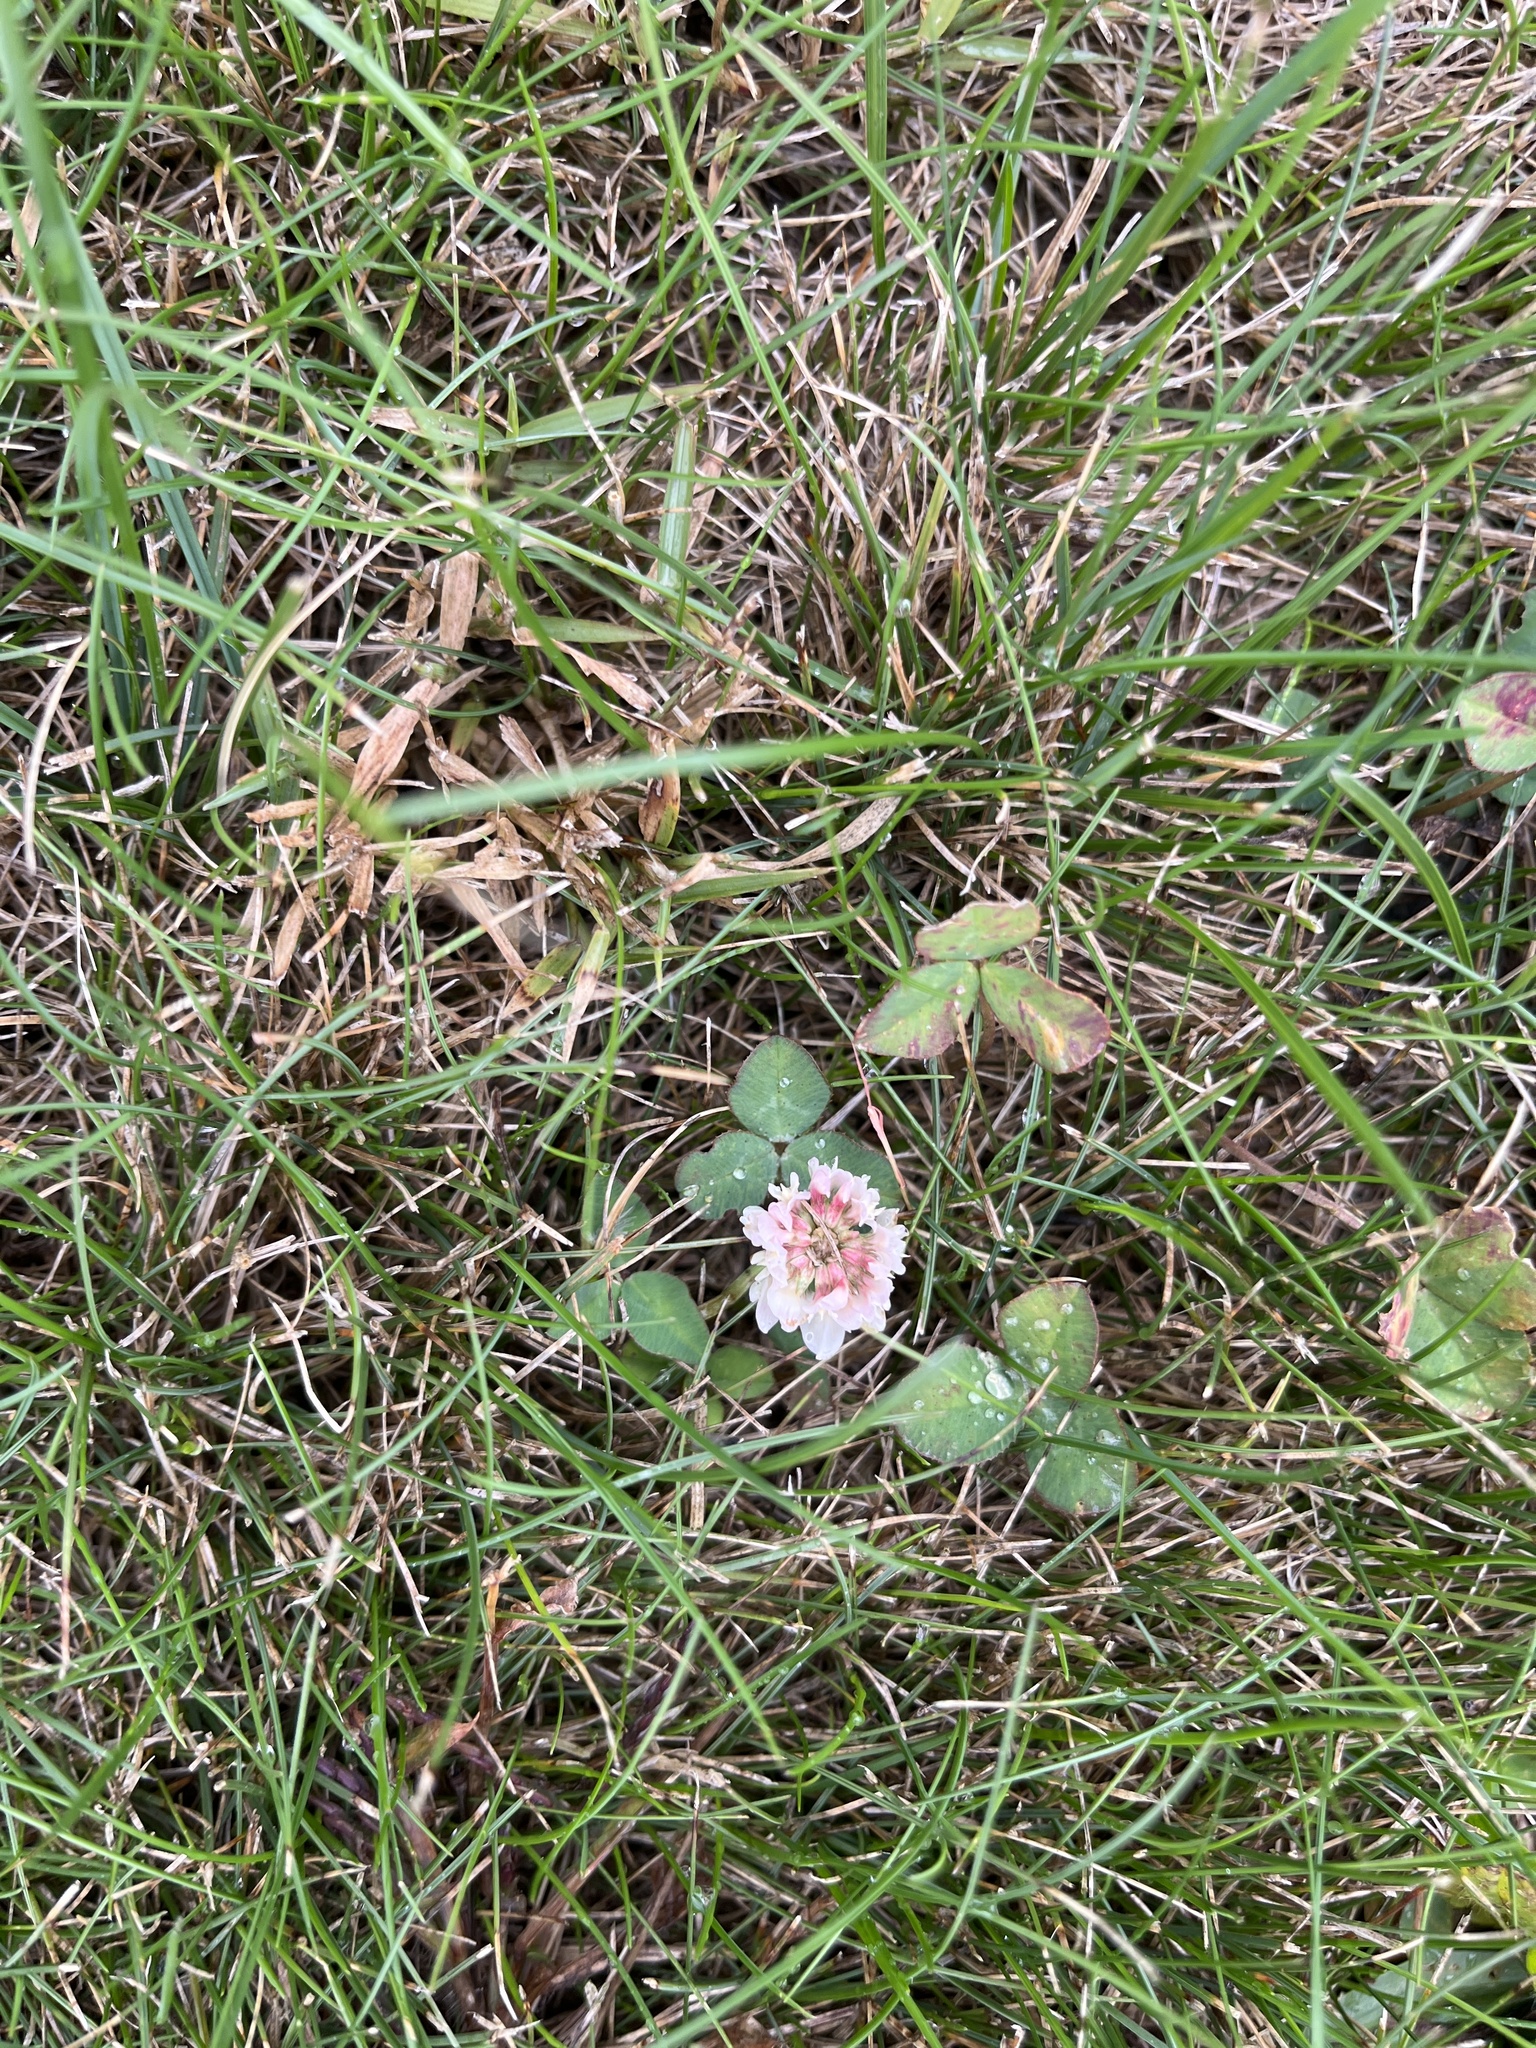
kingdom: Plantae
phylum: Tracheophyta
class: Magnoliopsida
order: Fabales
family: Fabaceae
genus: Trifolium
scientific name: Trifolium repens
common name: White clover
